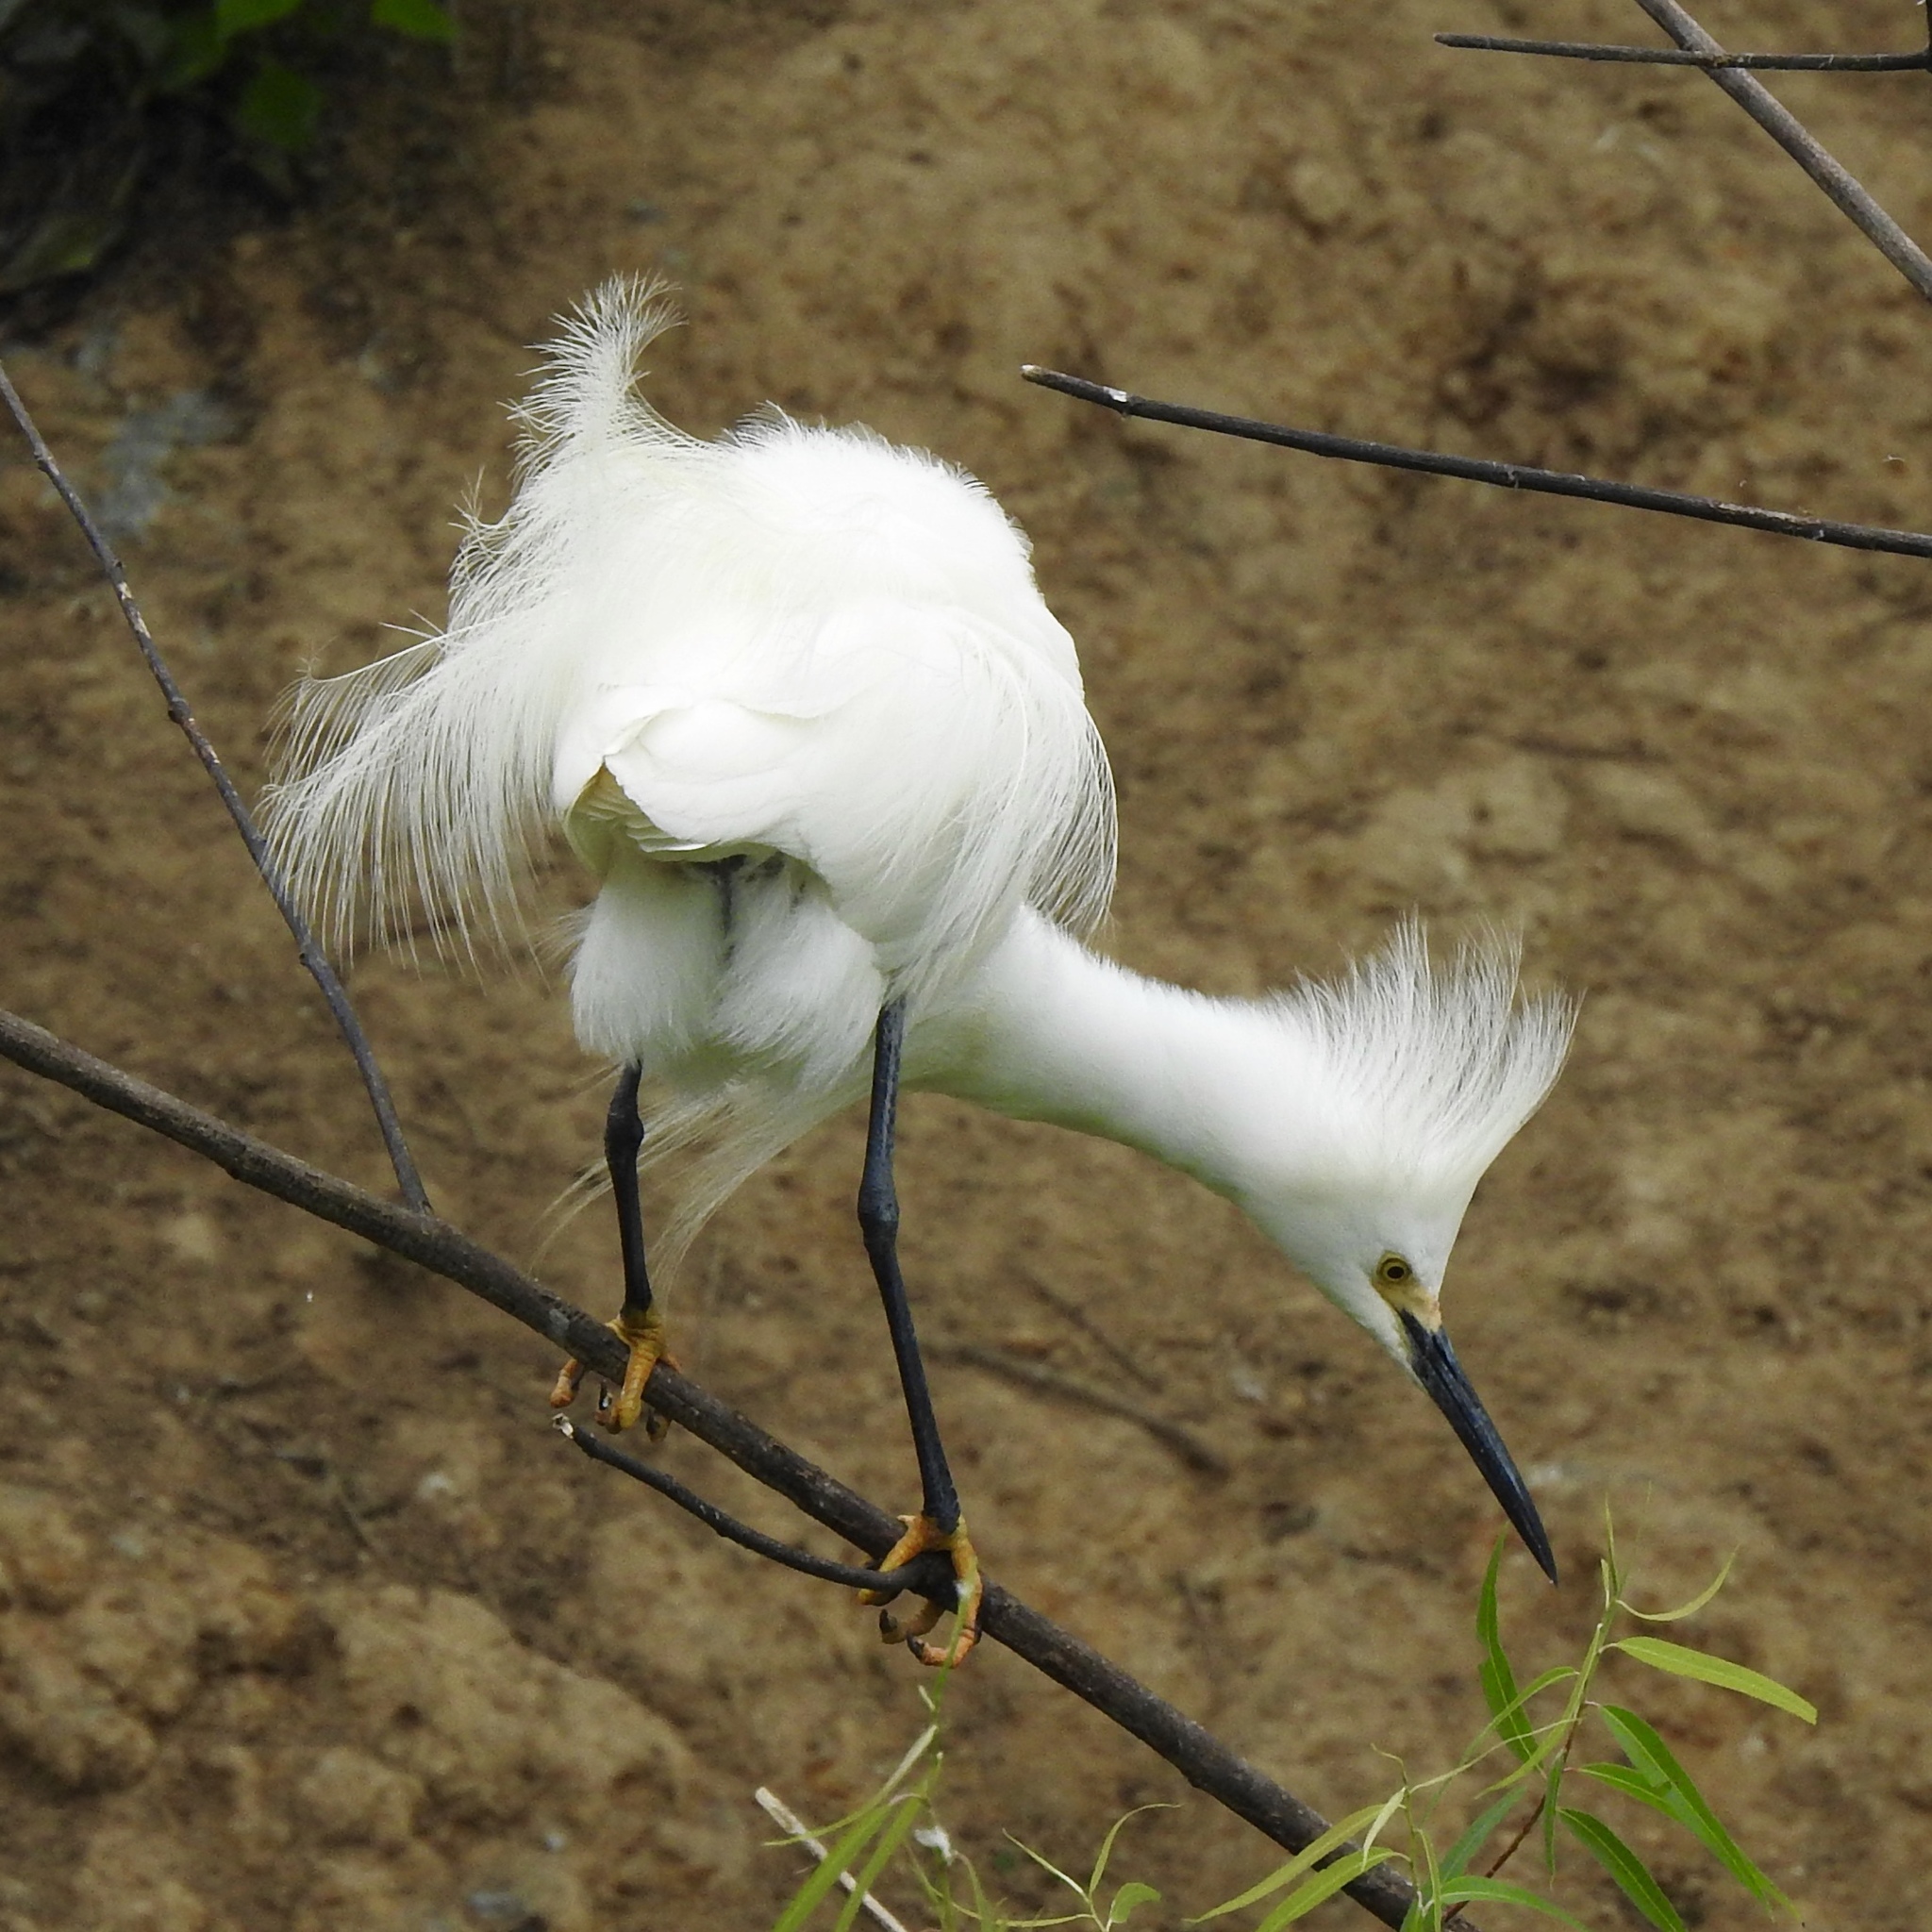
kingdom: Animalia
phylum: Chordata
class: Aves
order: Pelecaniformes
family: Ardeidae
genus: Egretta
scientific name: Egretta thula
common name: Snowy egret
